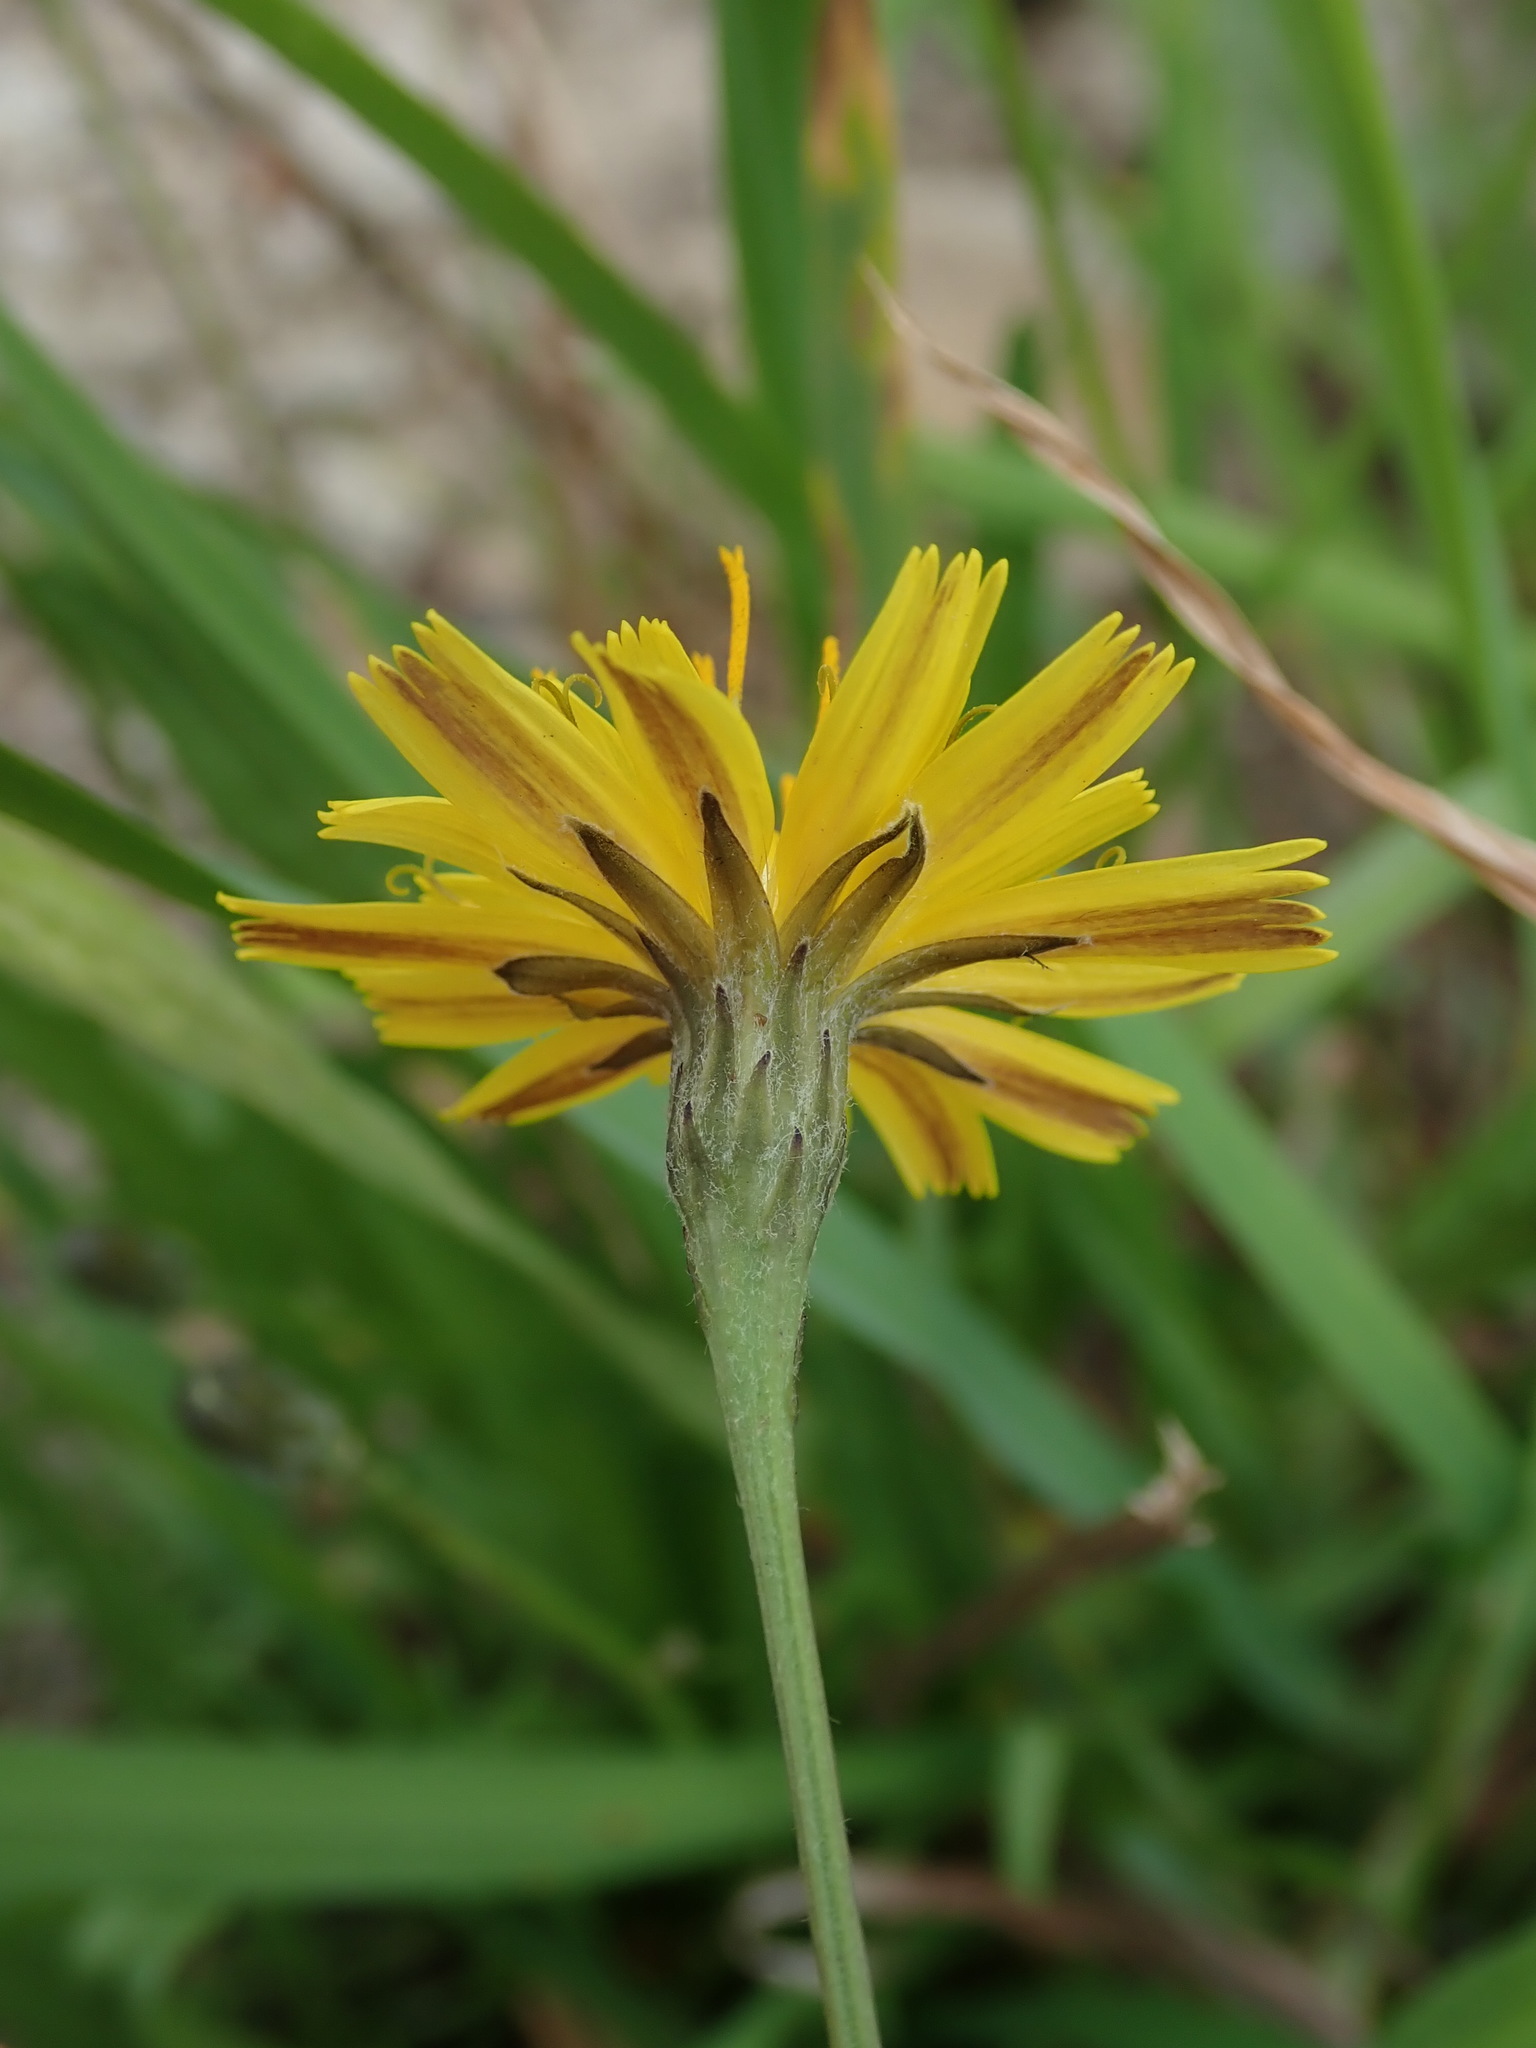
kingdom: Plantae
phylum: Tracheophyta
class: Magnoliopsida
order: Asterales
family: Asteraceae
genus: Scorzoneroides
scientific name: Scorzoneroides autumnalis
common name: Autumn hawkbit
